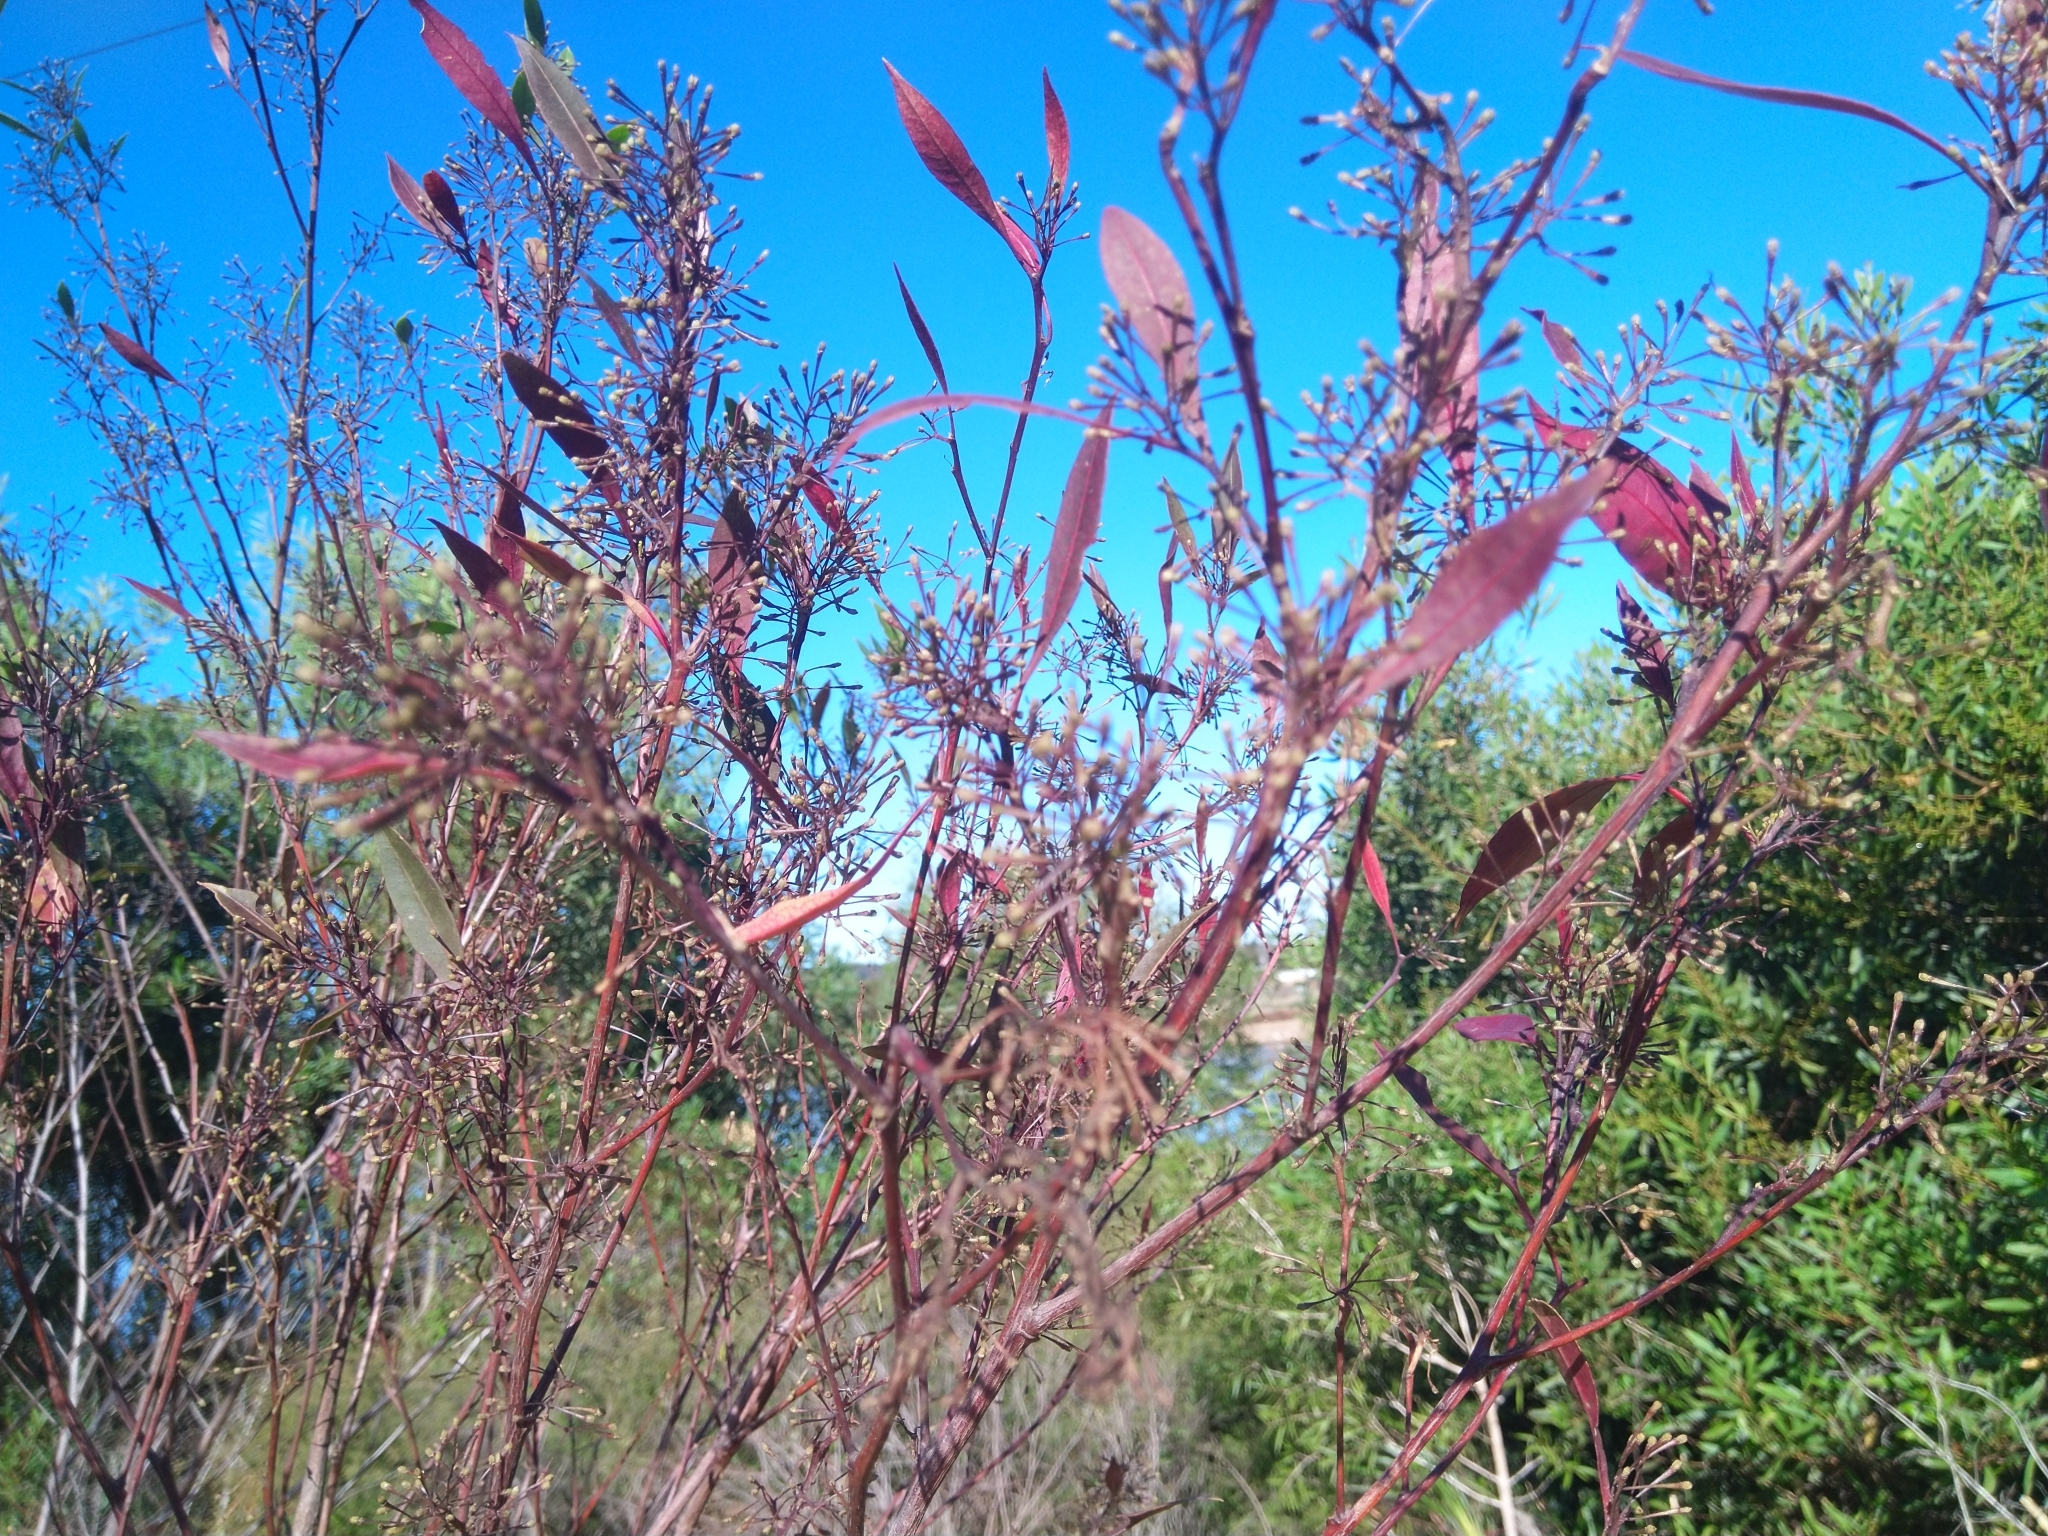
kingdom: Plantae
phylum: Tracheophyta
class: Magnoliopsida
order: Sapindales
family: Sapindaceae
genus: Dodonaea
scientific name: Dodonaea triquetra
